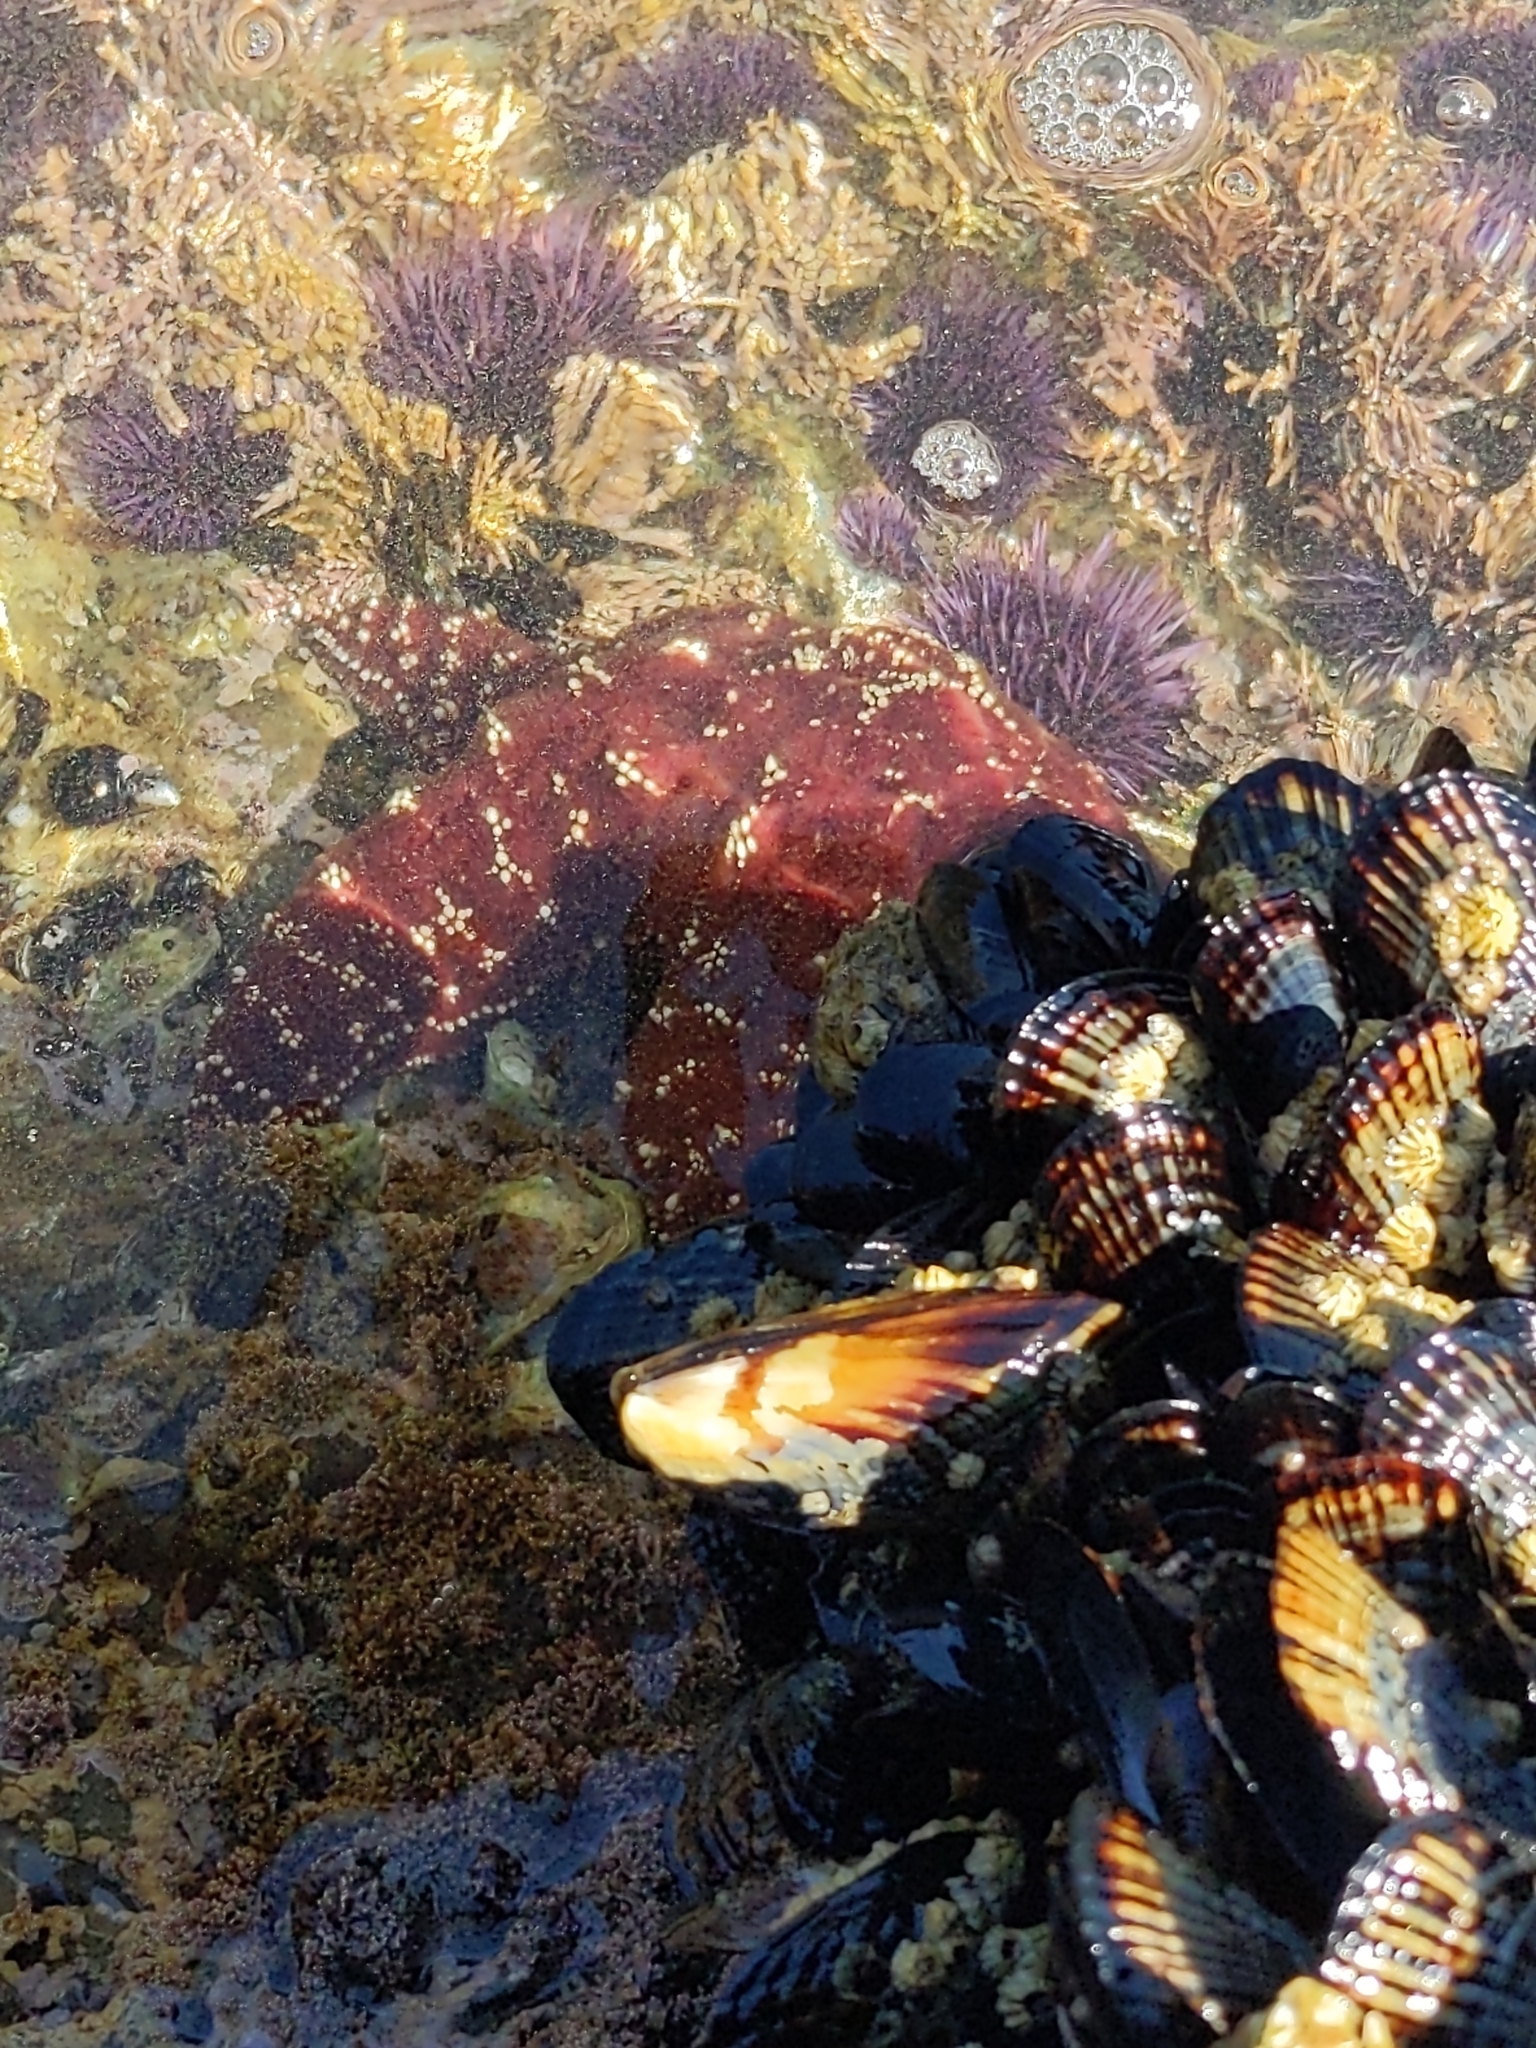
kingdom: Animalia
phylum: Echinodermata
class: Asteroidea
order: Forcipulatida
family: Asteriidae
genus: Pisaster
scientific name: Pisaster ochraceus
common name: Ochre stars
